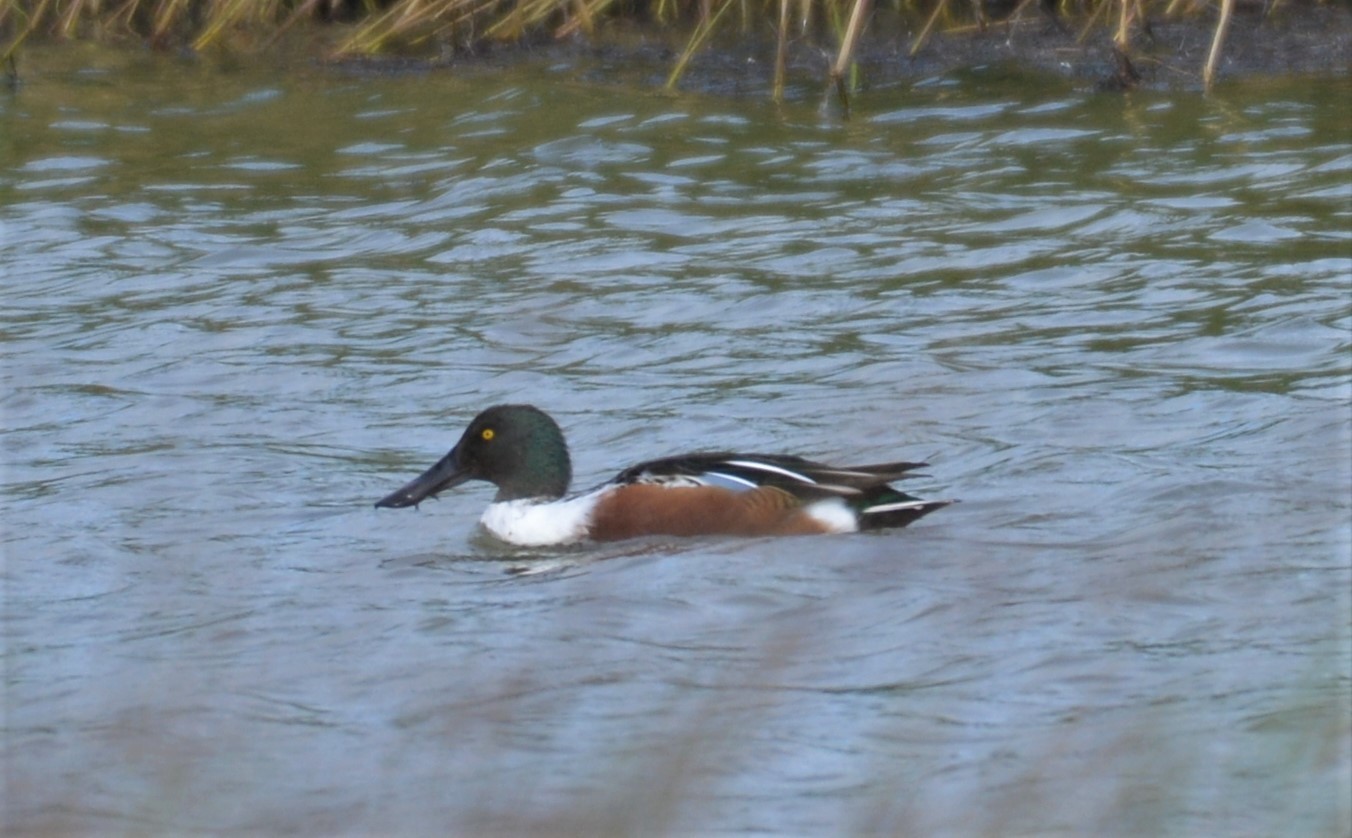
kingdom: Animalia
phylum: Chordata
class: Aves
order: Anseriformes
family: Anatidae
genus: Spatula
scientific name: Spatula clypeata
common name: Northern shoveler
